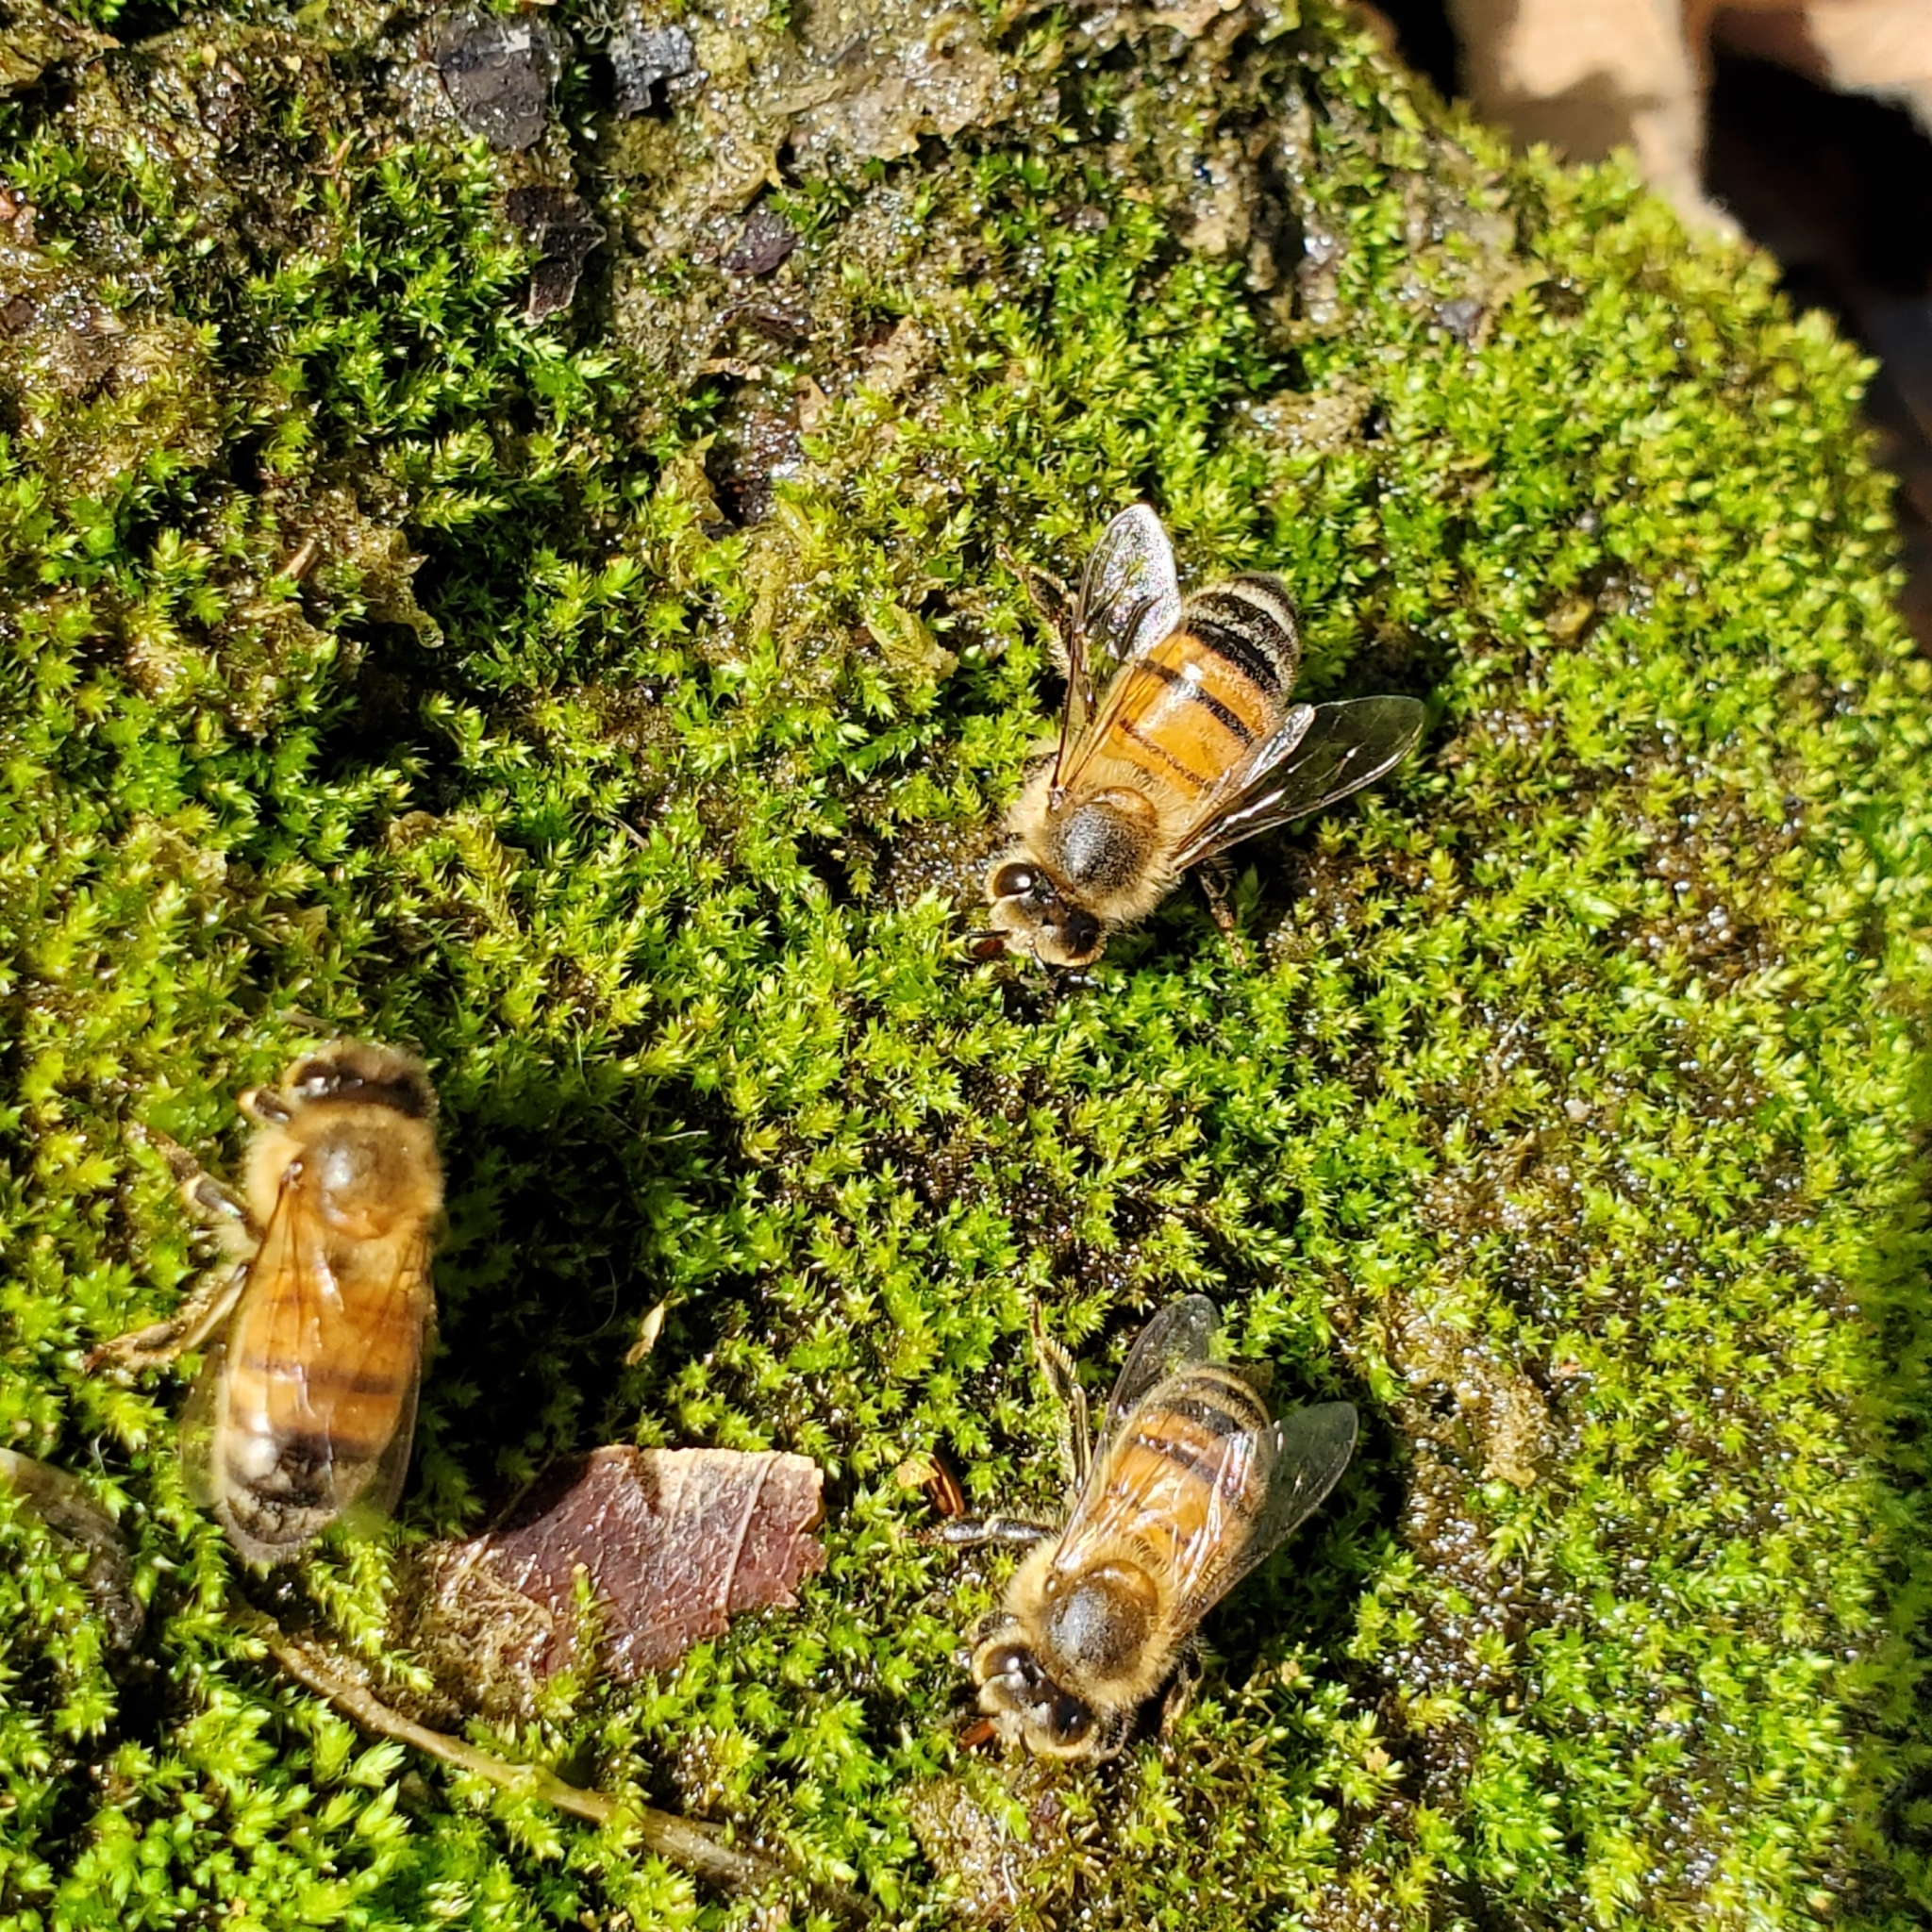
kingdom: Animalia
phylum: Arthropoda
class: Insecta
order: Hymenoptera
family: Apidae
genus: Apis
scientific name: Apis mellifera
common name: Honey bee
